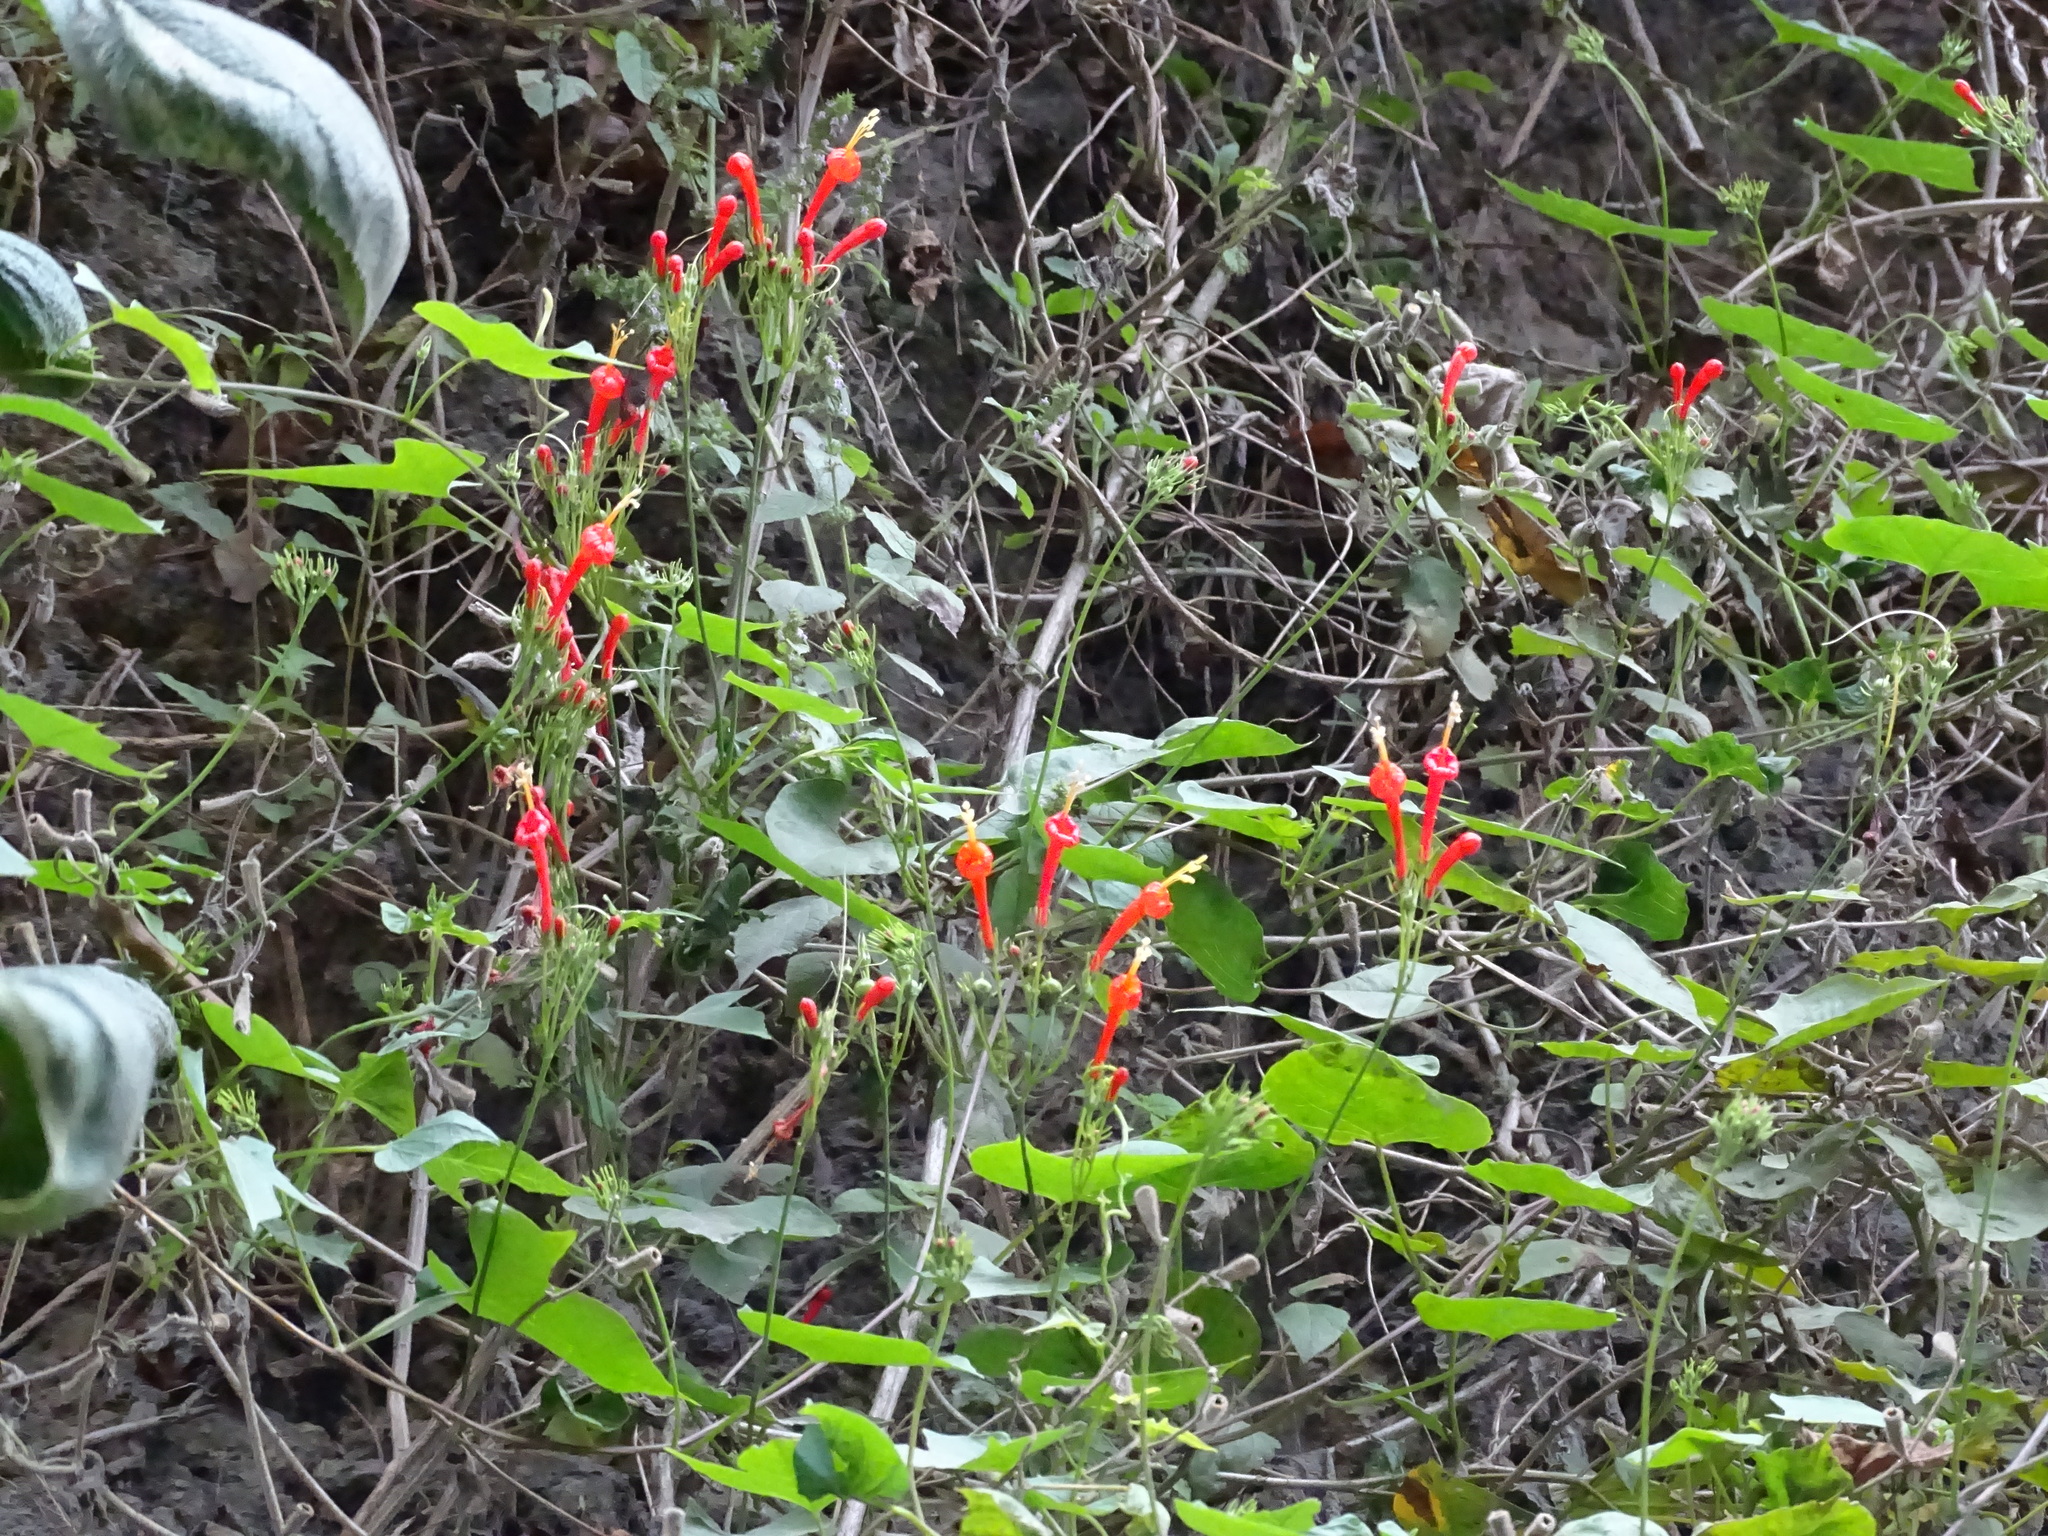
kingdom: Plantae
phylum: Tracheophyta
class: Magnoliopsida
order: Solanales
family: Convolvulaceae
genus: Ipomoea
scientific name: Ipomoea hastigera
